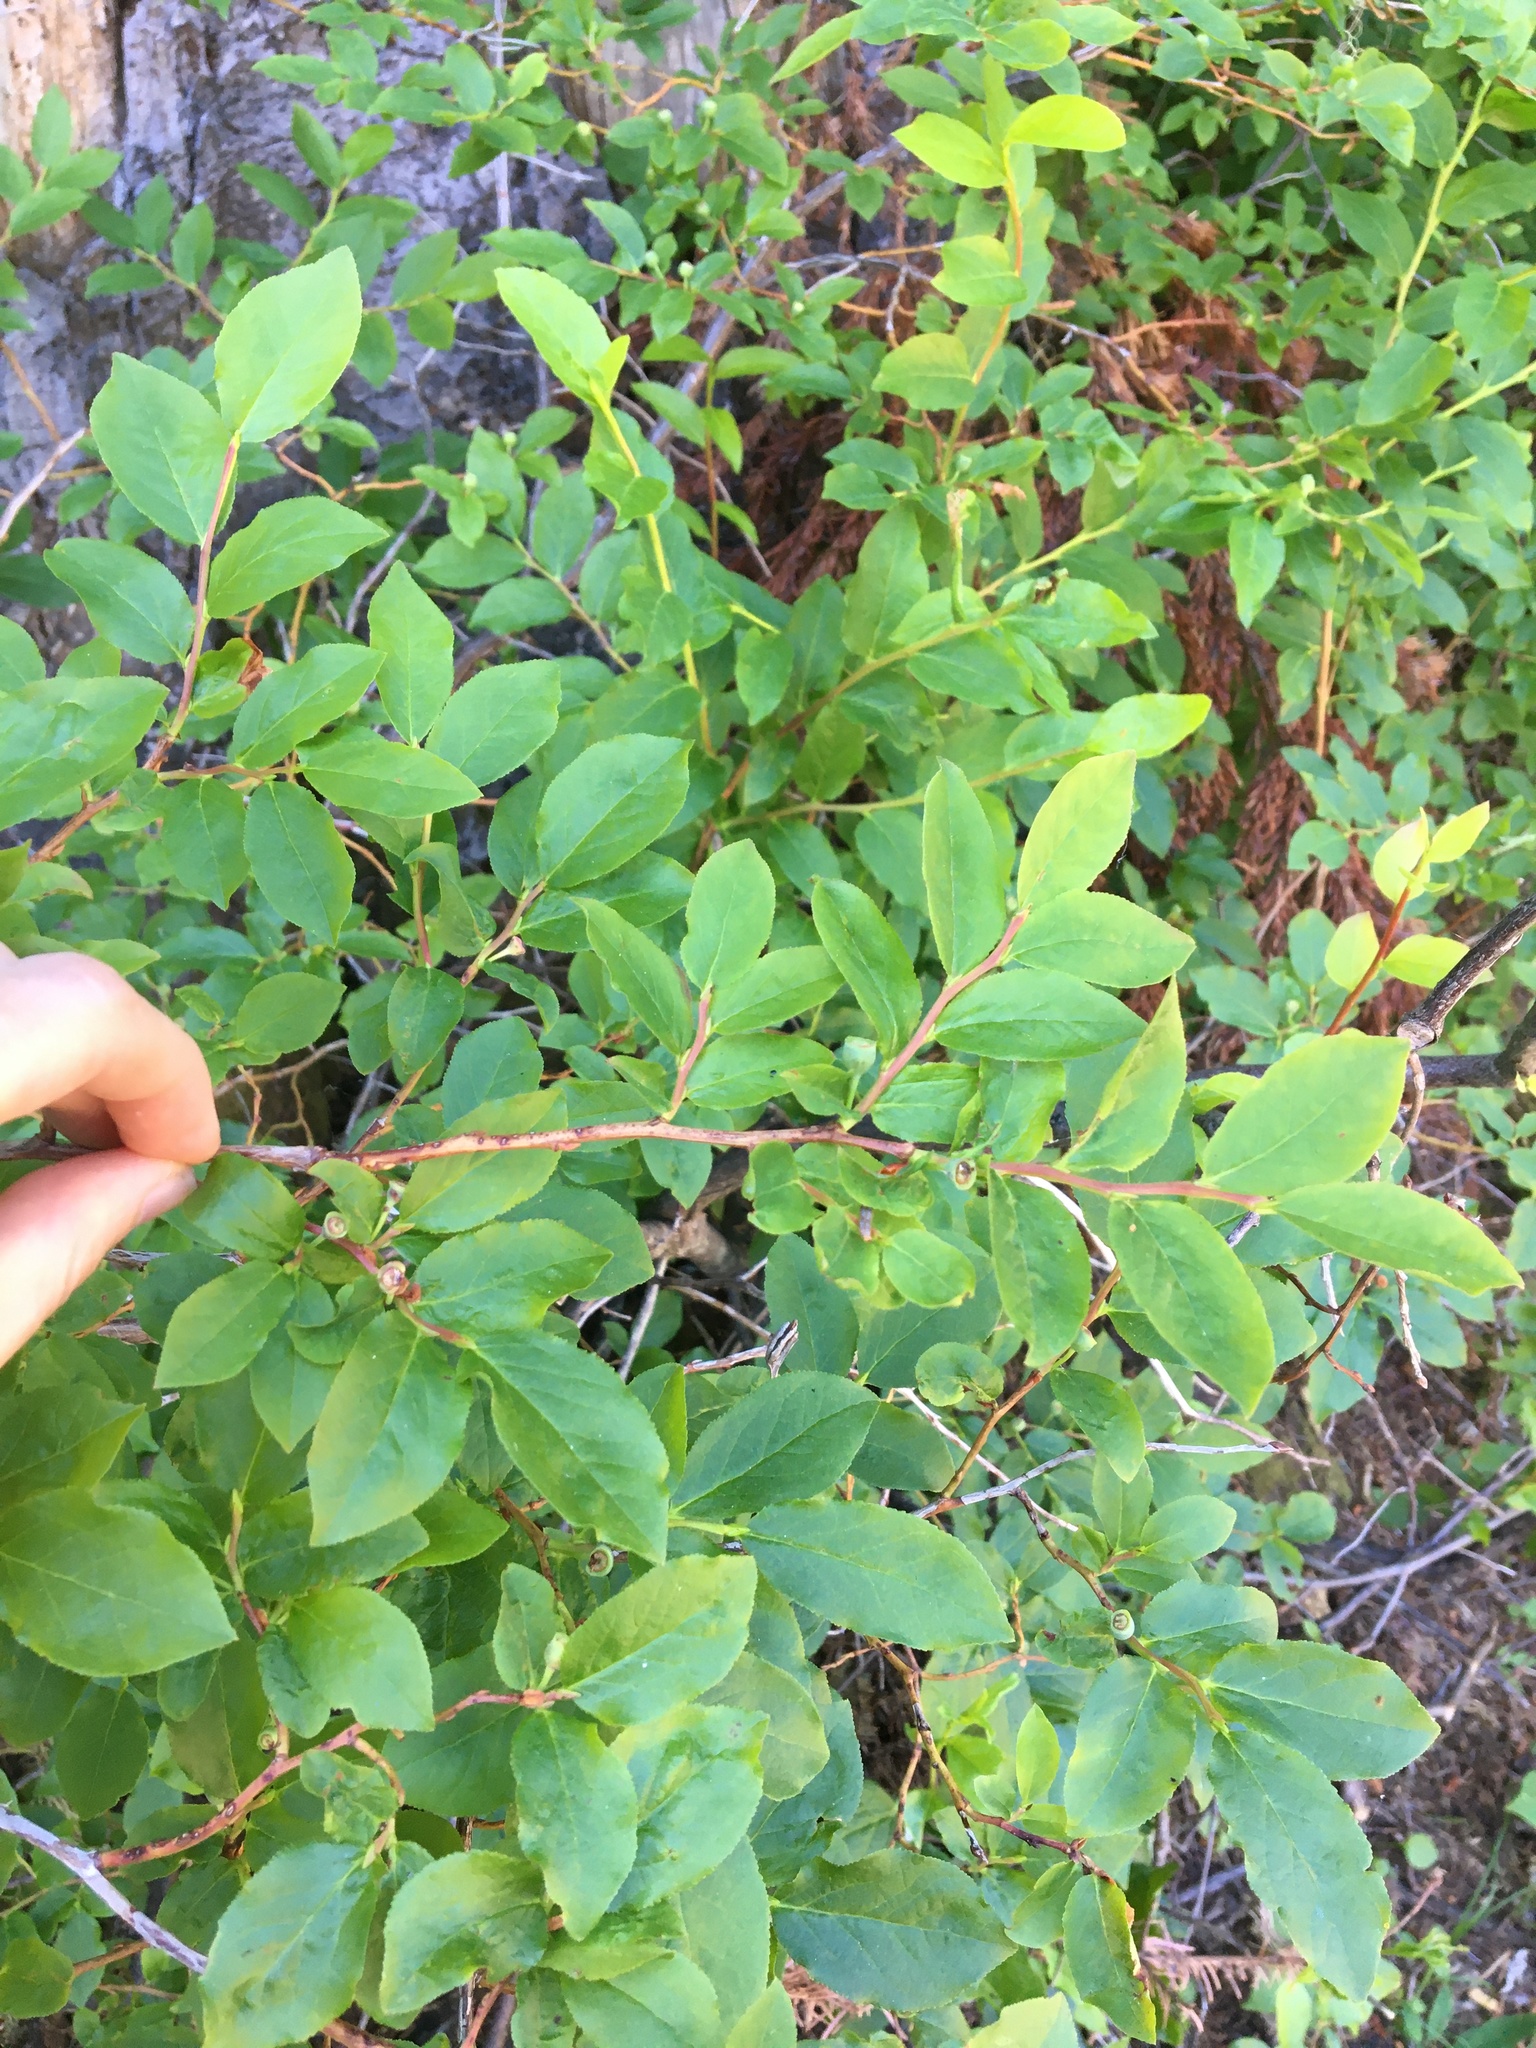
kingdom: Plantae
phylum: Tracheophyta
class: Magnoliopsida
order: Ericales
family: Ericaceae
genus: Vaccinium
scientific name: Vaccinium membranaceum
